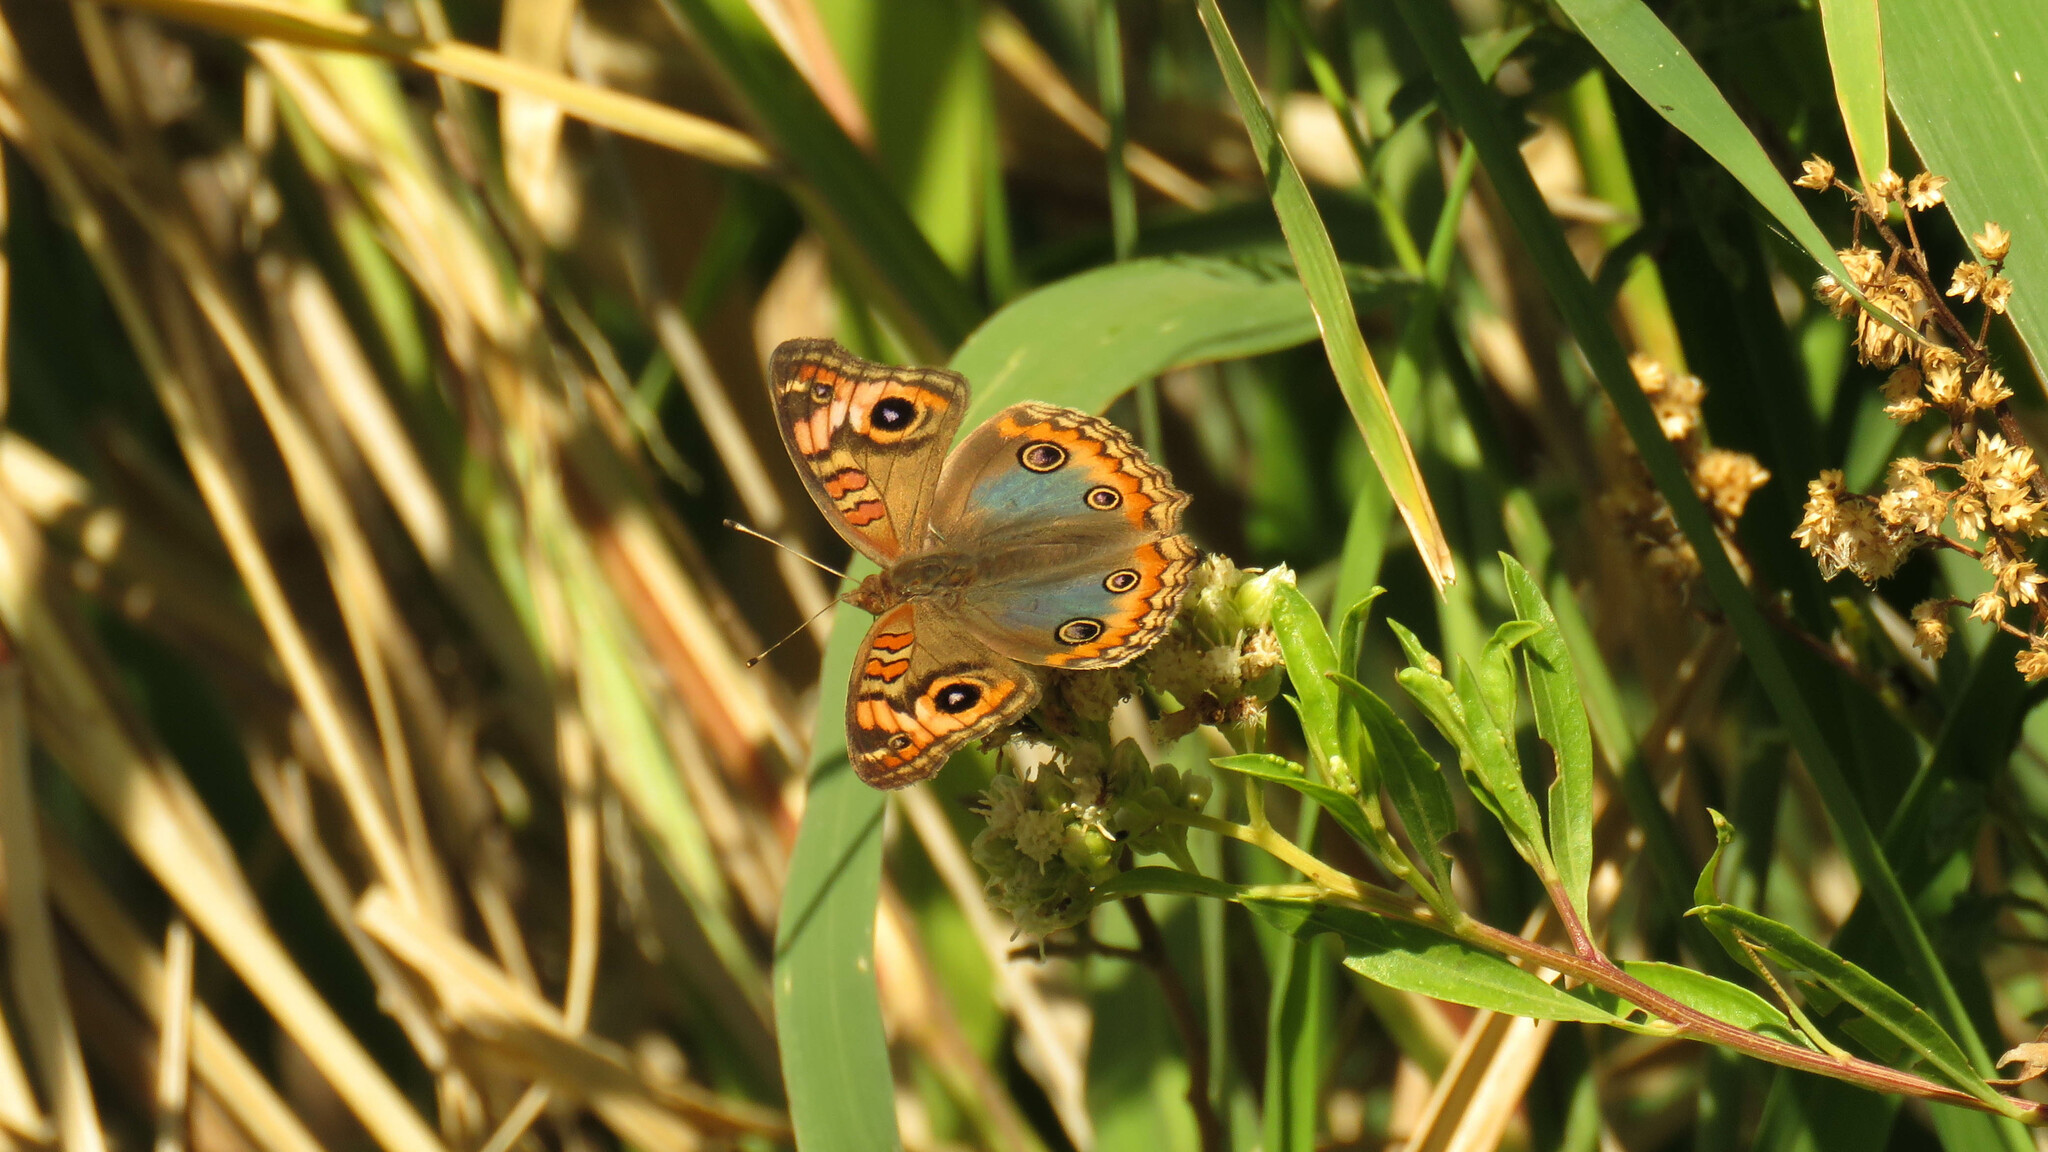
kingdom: Animalia
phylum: Arthropoda
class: Insecta
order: Lepidoptera
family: Nymphalidae
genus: Junonia
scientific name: Junonia lavinia
